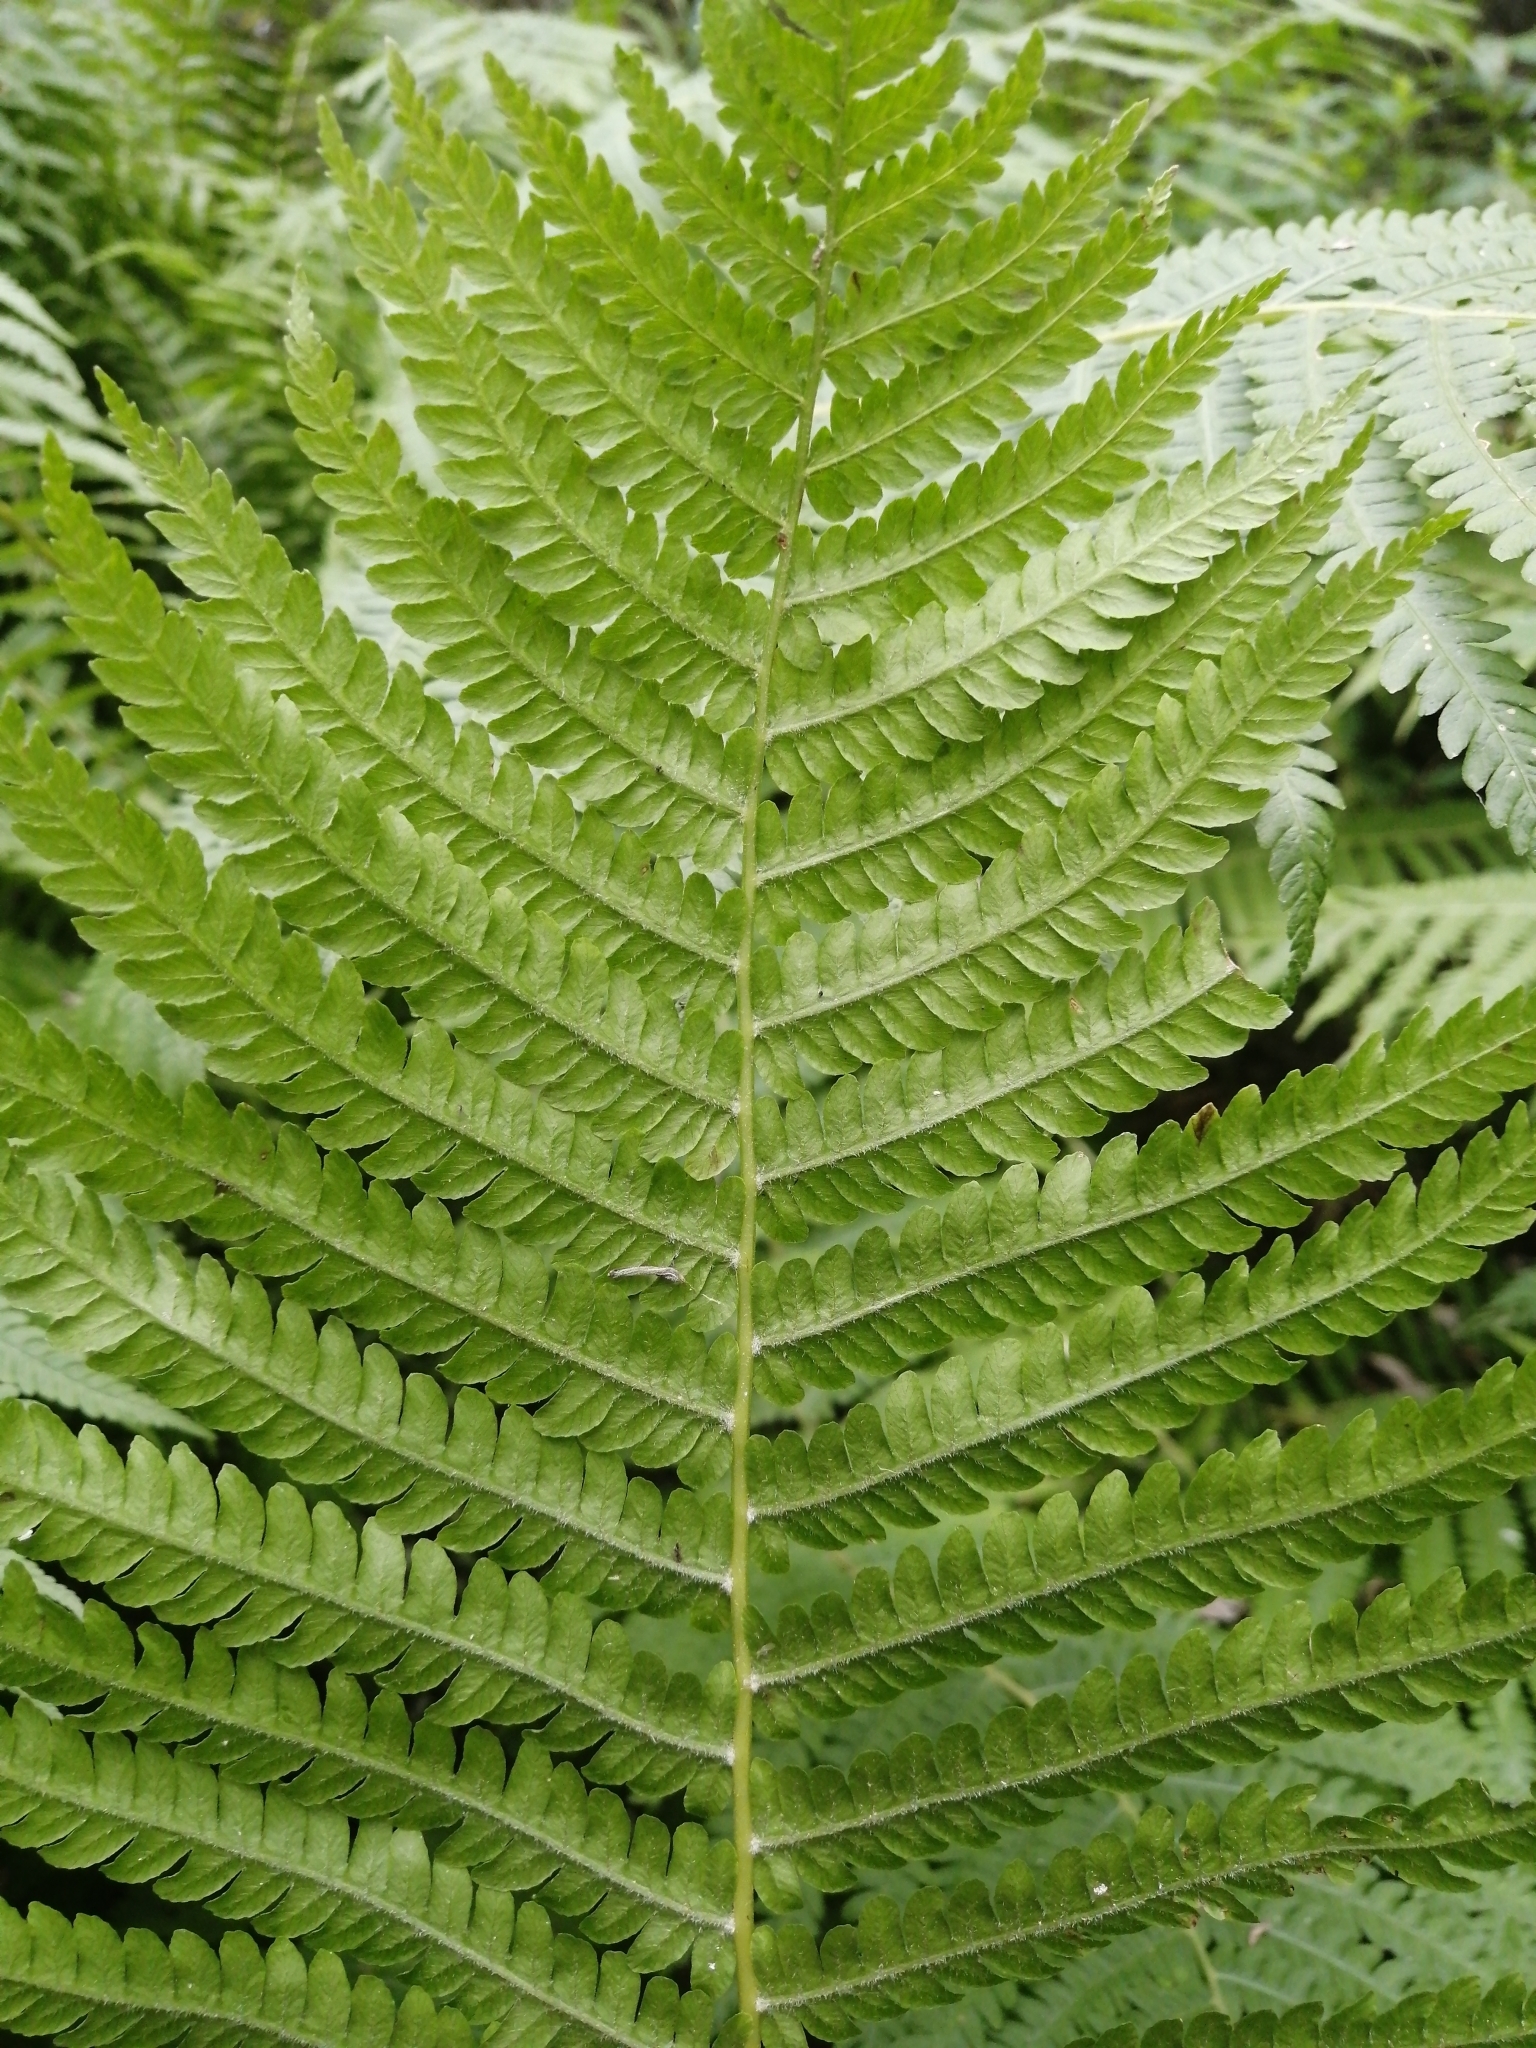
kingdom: Plantae
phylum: Tracheophyta
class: Polypodiopsida
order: Polypodiales
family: Onocleaceae
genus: Matteuccia
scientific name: Matteuccia struthiopteris
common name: Ostrich fern
